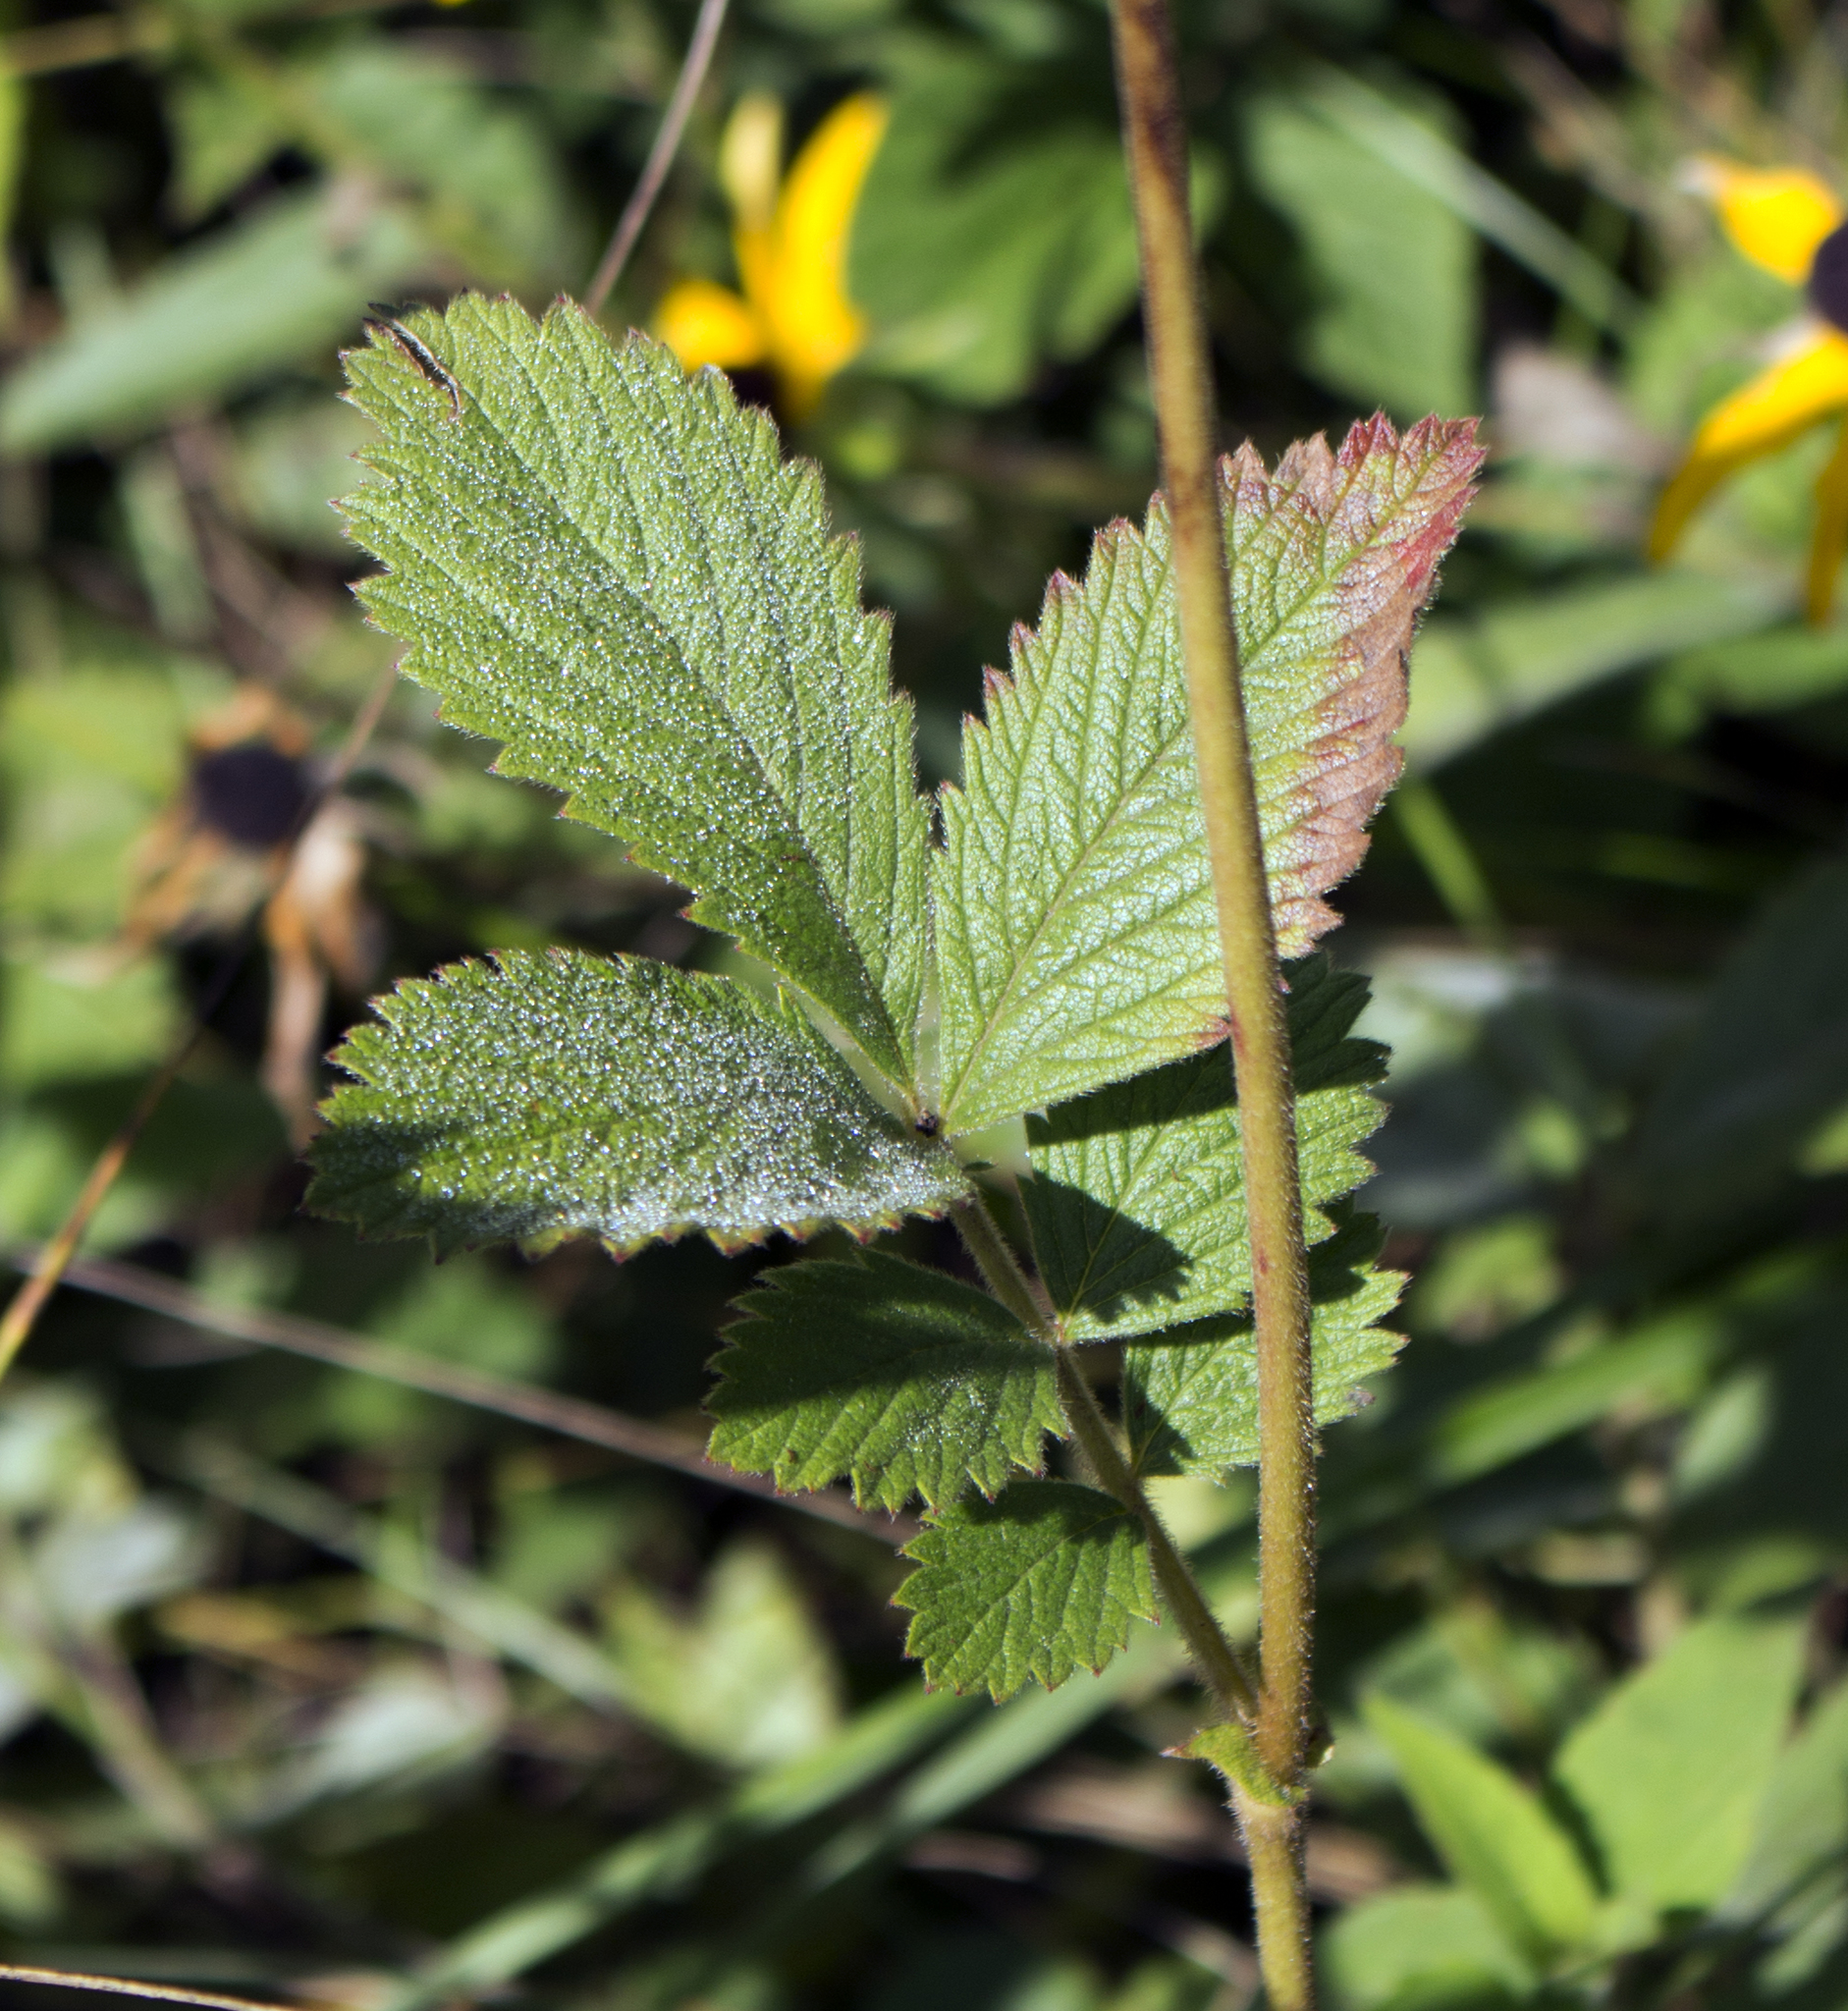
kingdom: Plantae
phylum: Tracheophyta
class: Magnoliopsida
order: Rosales
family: Rosaceae
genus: Drymocallis
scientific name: Drymocallis arguta
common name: Tall cinquefoil
